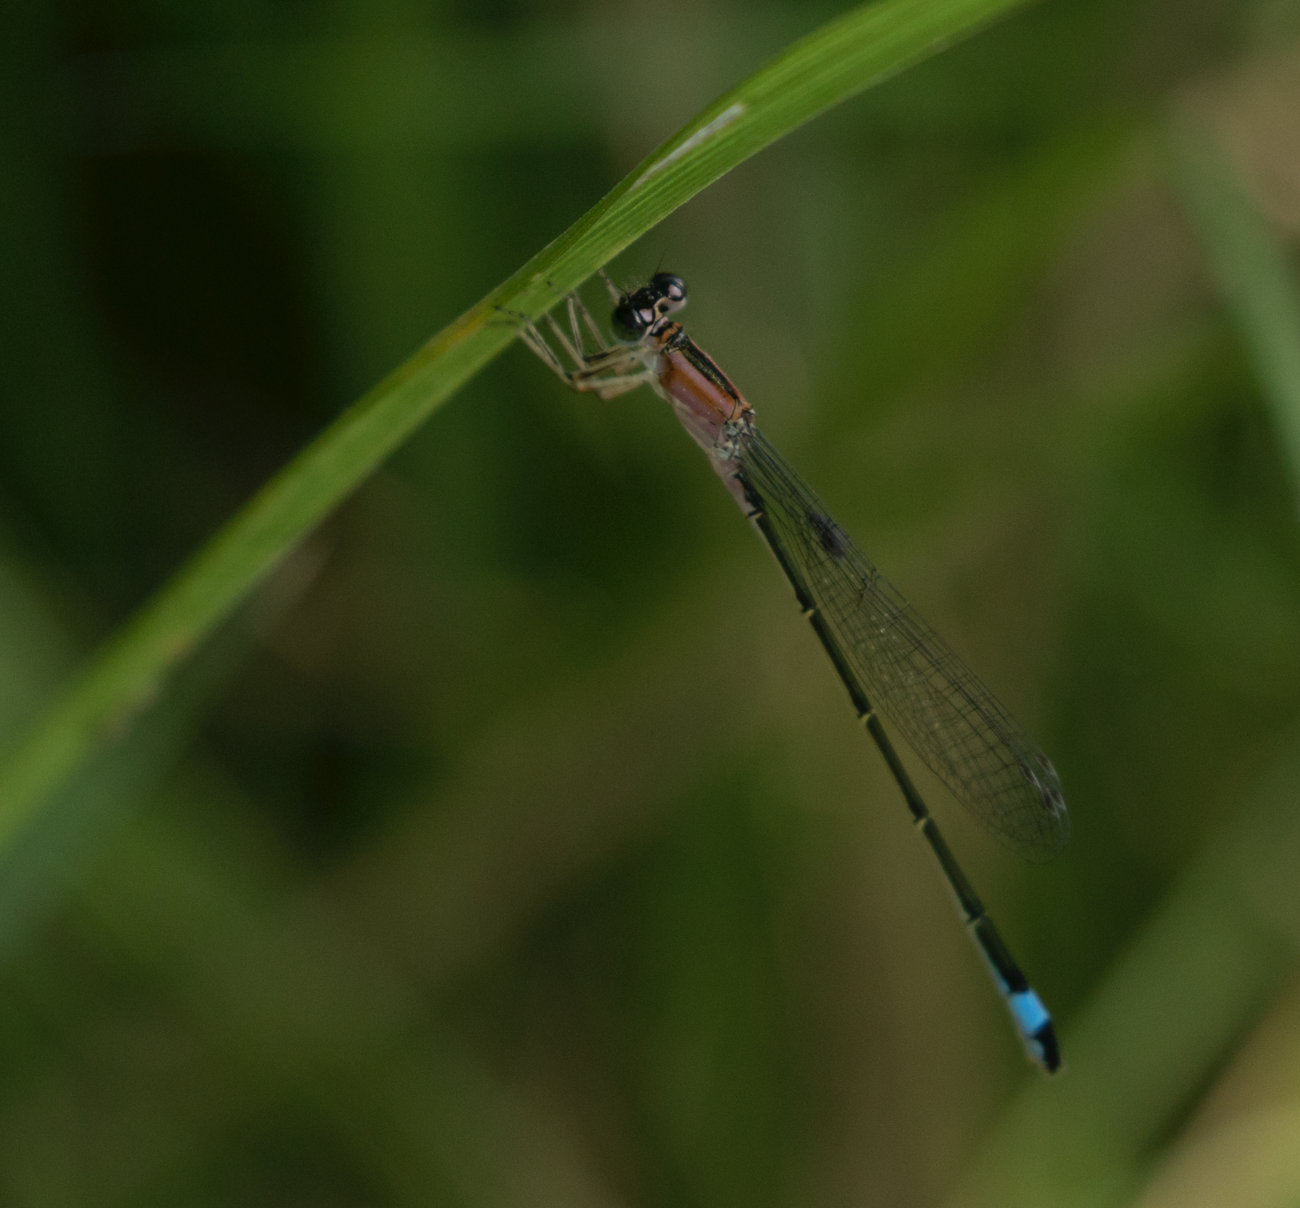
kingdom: Animalia
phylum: Arthropoda
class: Insecta
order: Odonata
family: Coenagrionidae
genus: Ischnura
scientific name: Ischnura elegans
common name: Blue-tailed damselfly
